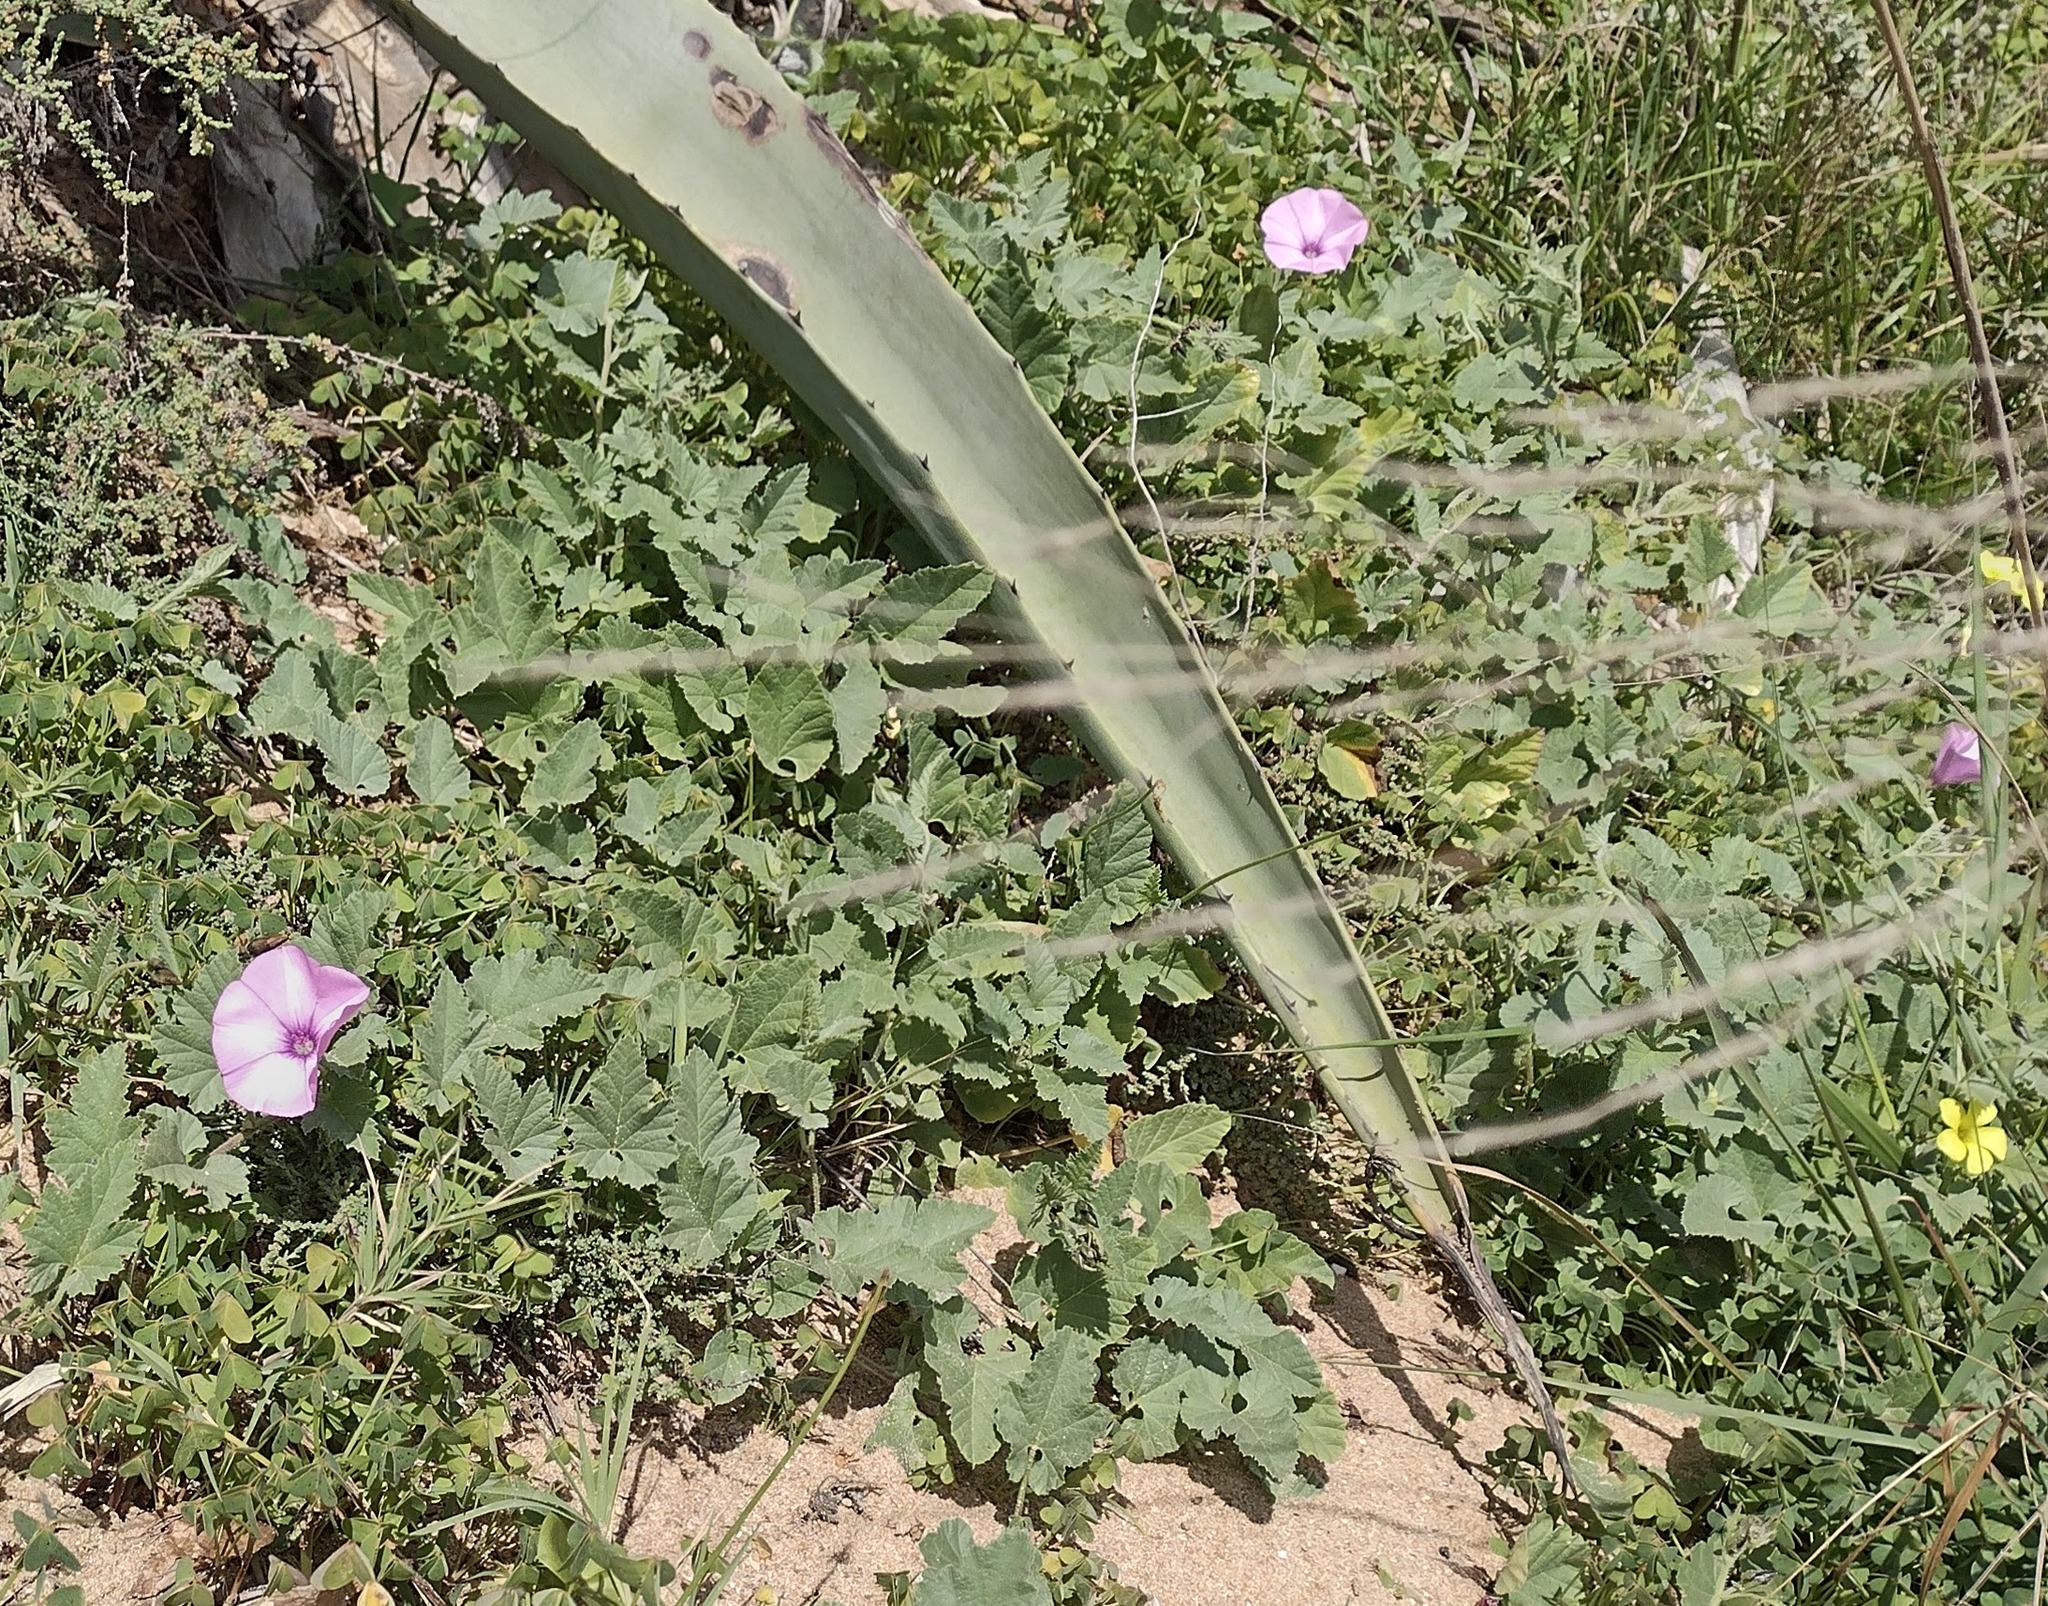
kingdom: Plantae
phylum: Tracheophyta
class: Magnoliopsida
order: Solanales
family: Convolvulaceae
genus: Convolvulus
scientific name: Convolvulus althaeoides
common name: Mallow bindweed
